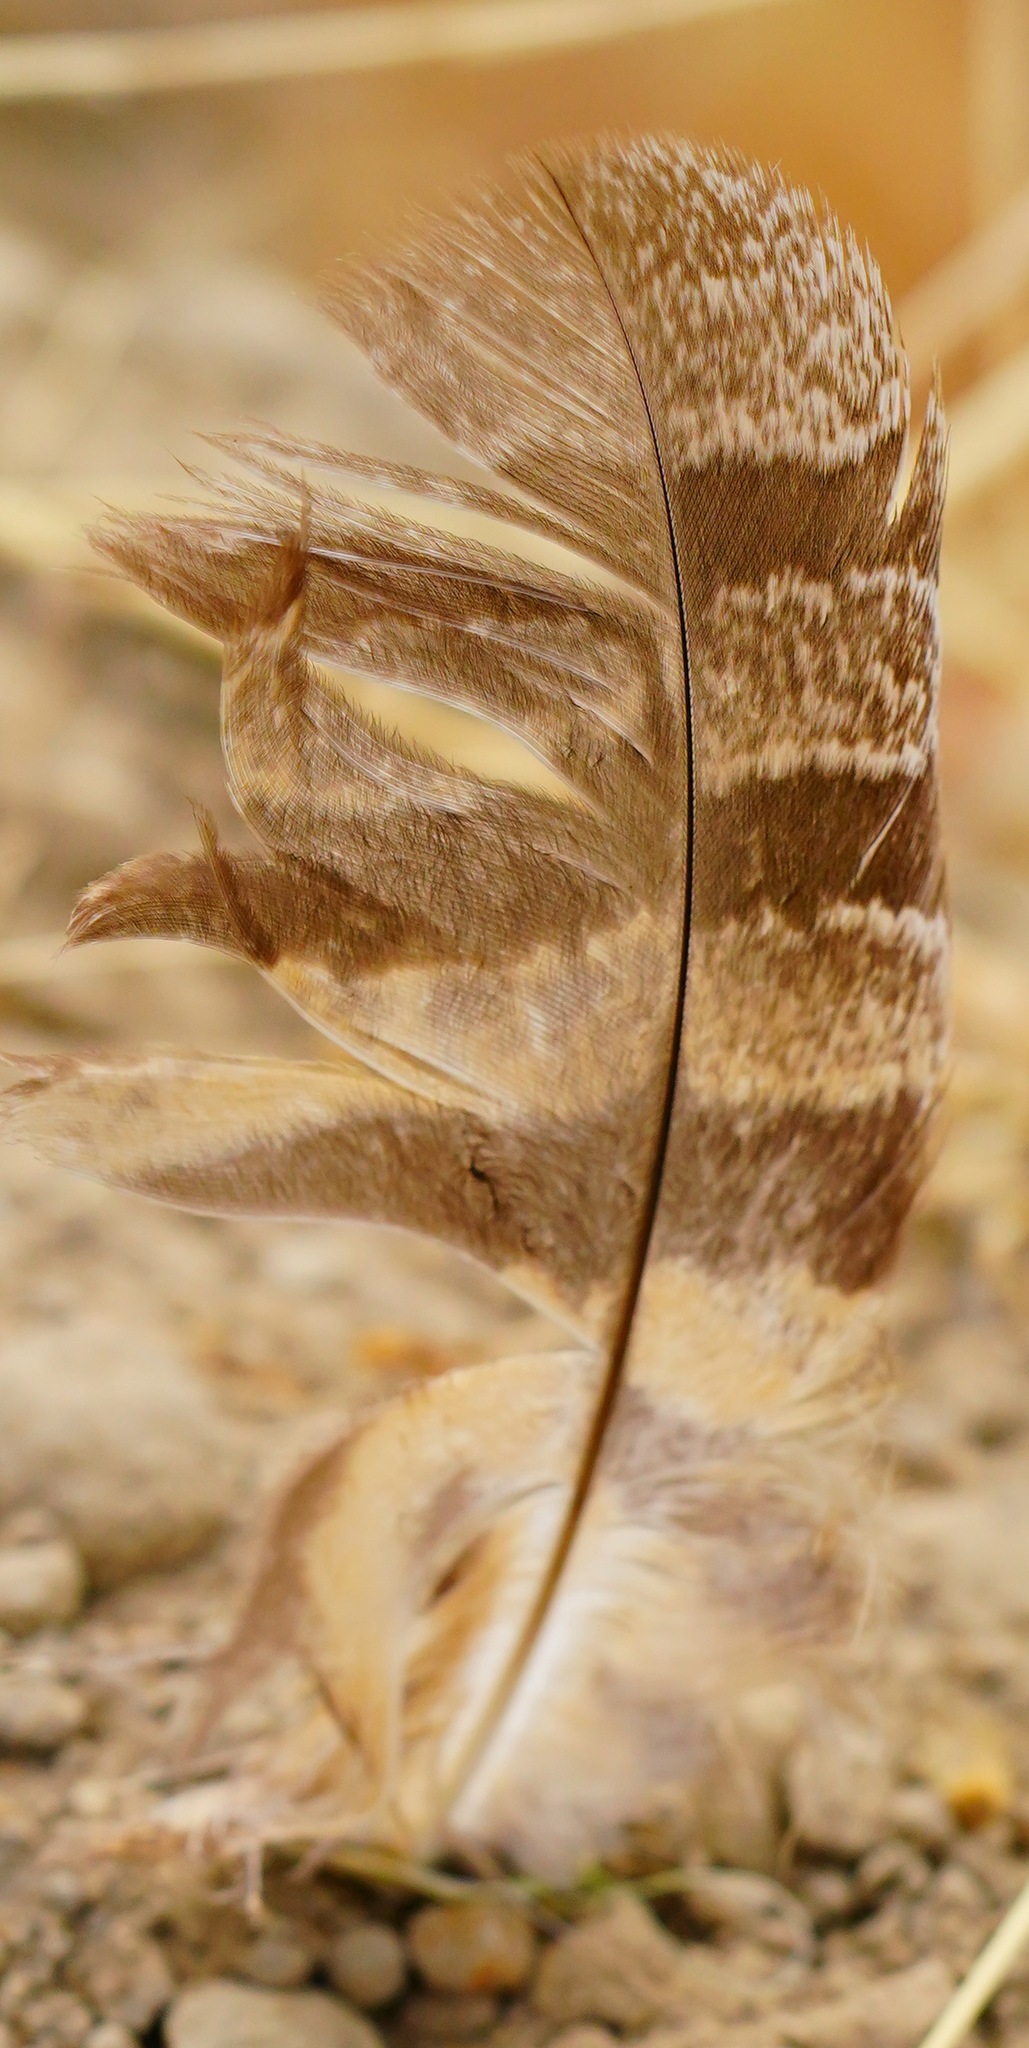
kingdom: Animalia
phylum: Chordata
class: Aves
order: Strigiformes
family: Strigidae
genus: Bubo
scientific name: Bubo virginianus
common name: Great horned owl
